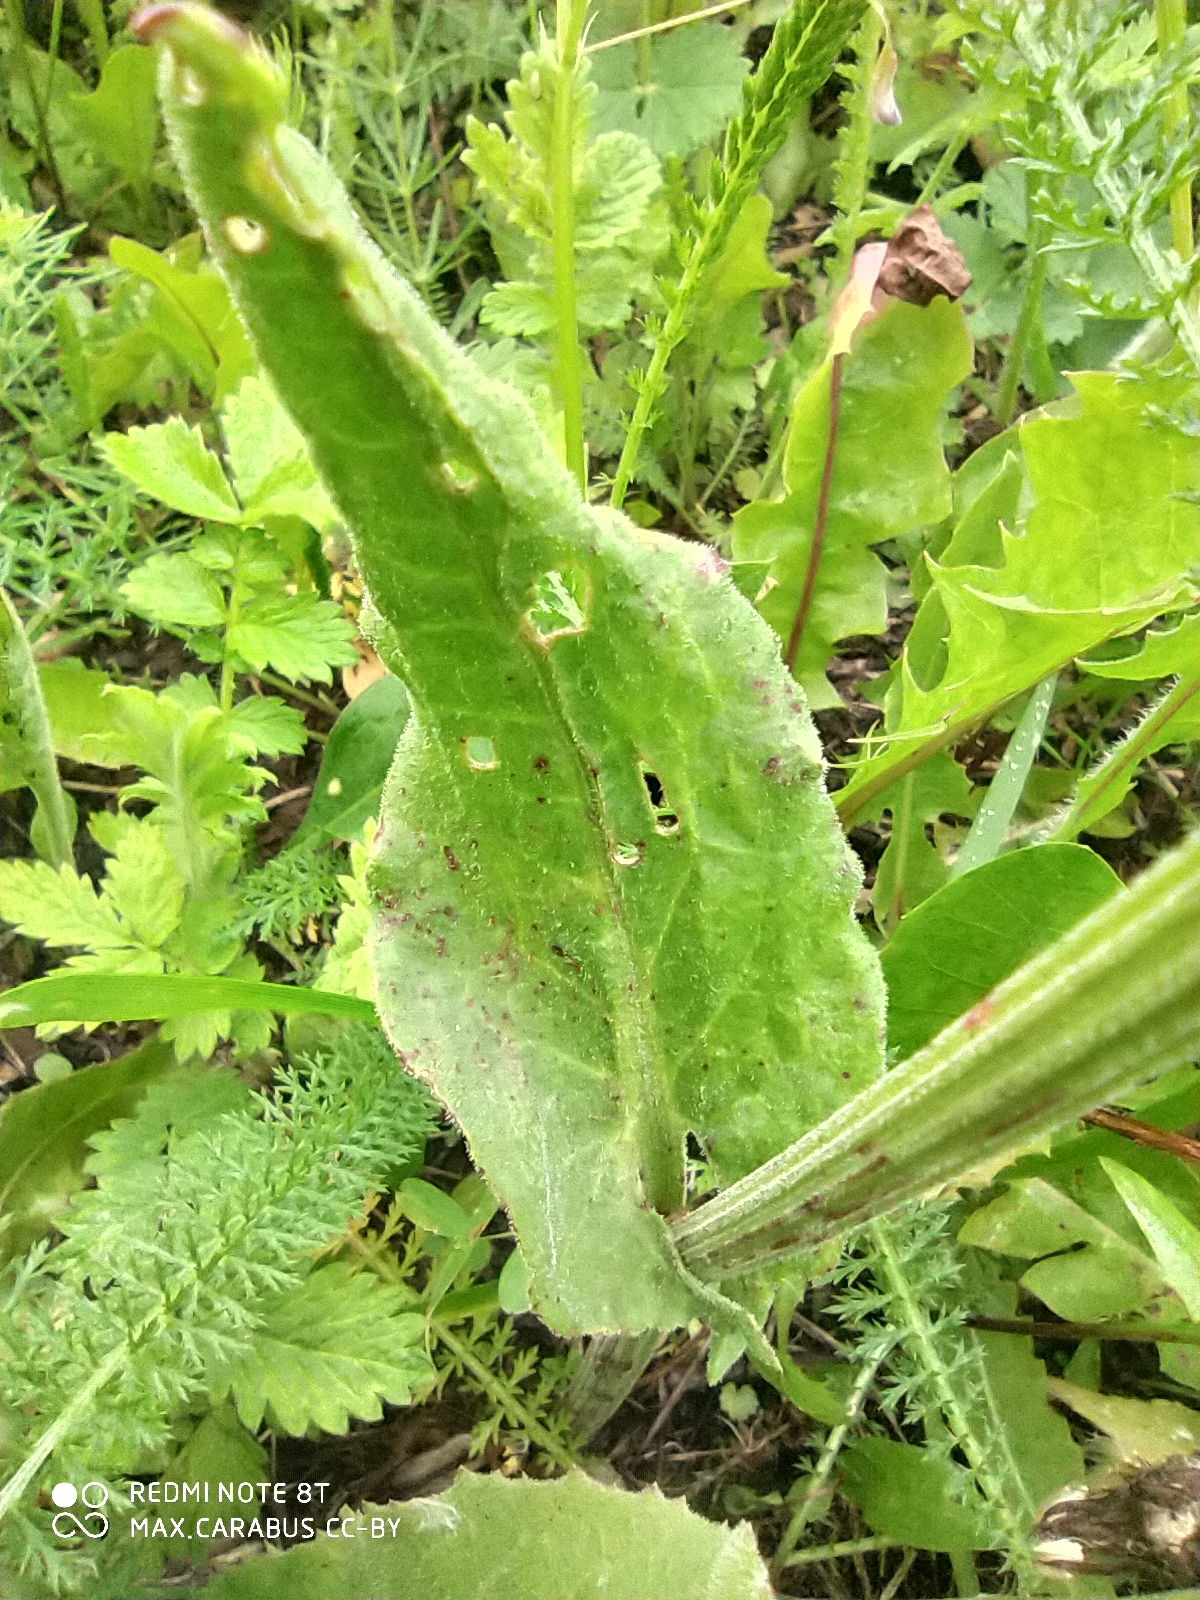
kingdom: Plantae
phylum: Tracheophyta
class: Magnoliopsida
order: Caryophyllales
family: Polygonaceae
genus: Rumex
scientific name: Rumex acetosa
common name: Garden sorrel
